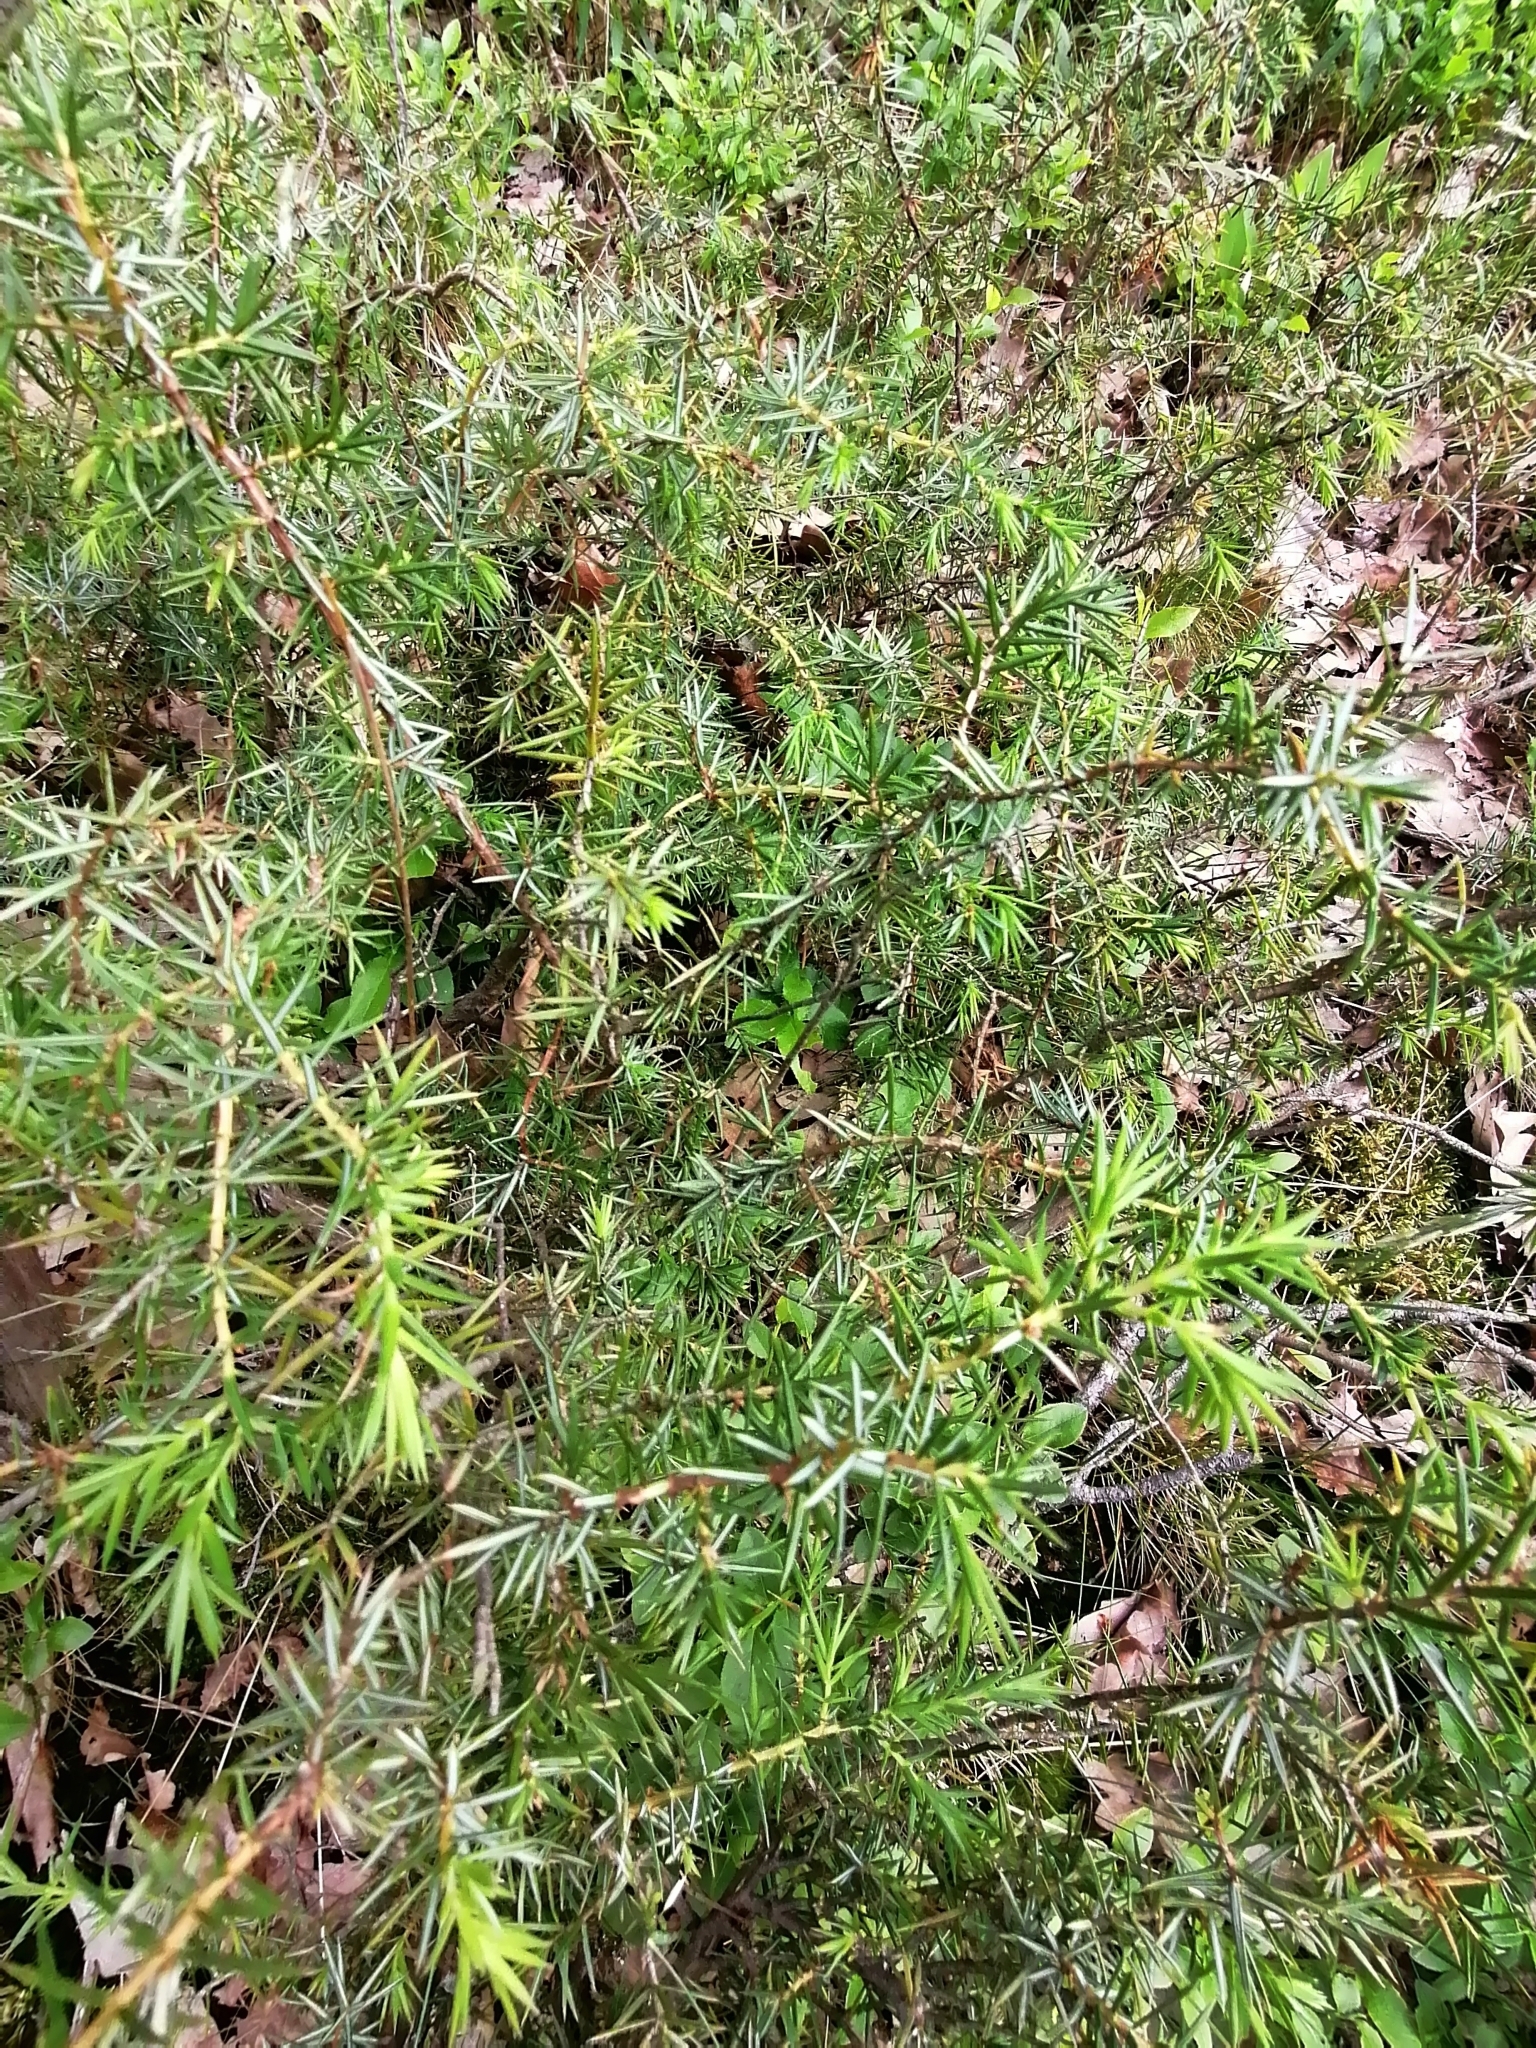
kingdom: Plantae
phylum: Tracheophyta
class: Pinopsida
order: Pinales
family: Cupressaceae
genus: Juniperus
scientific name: Juniperus communis
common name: Common juniper
